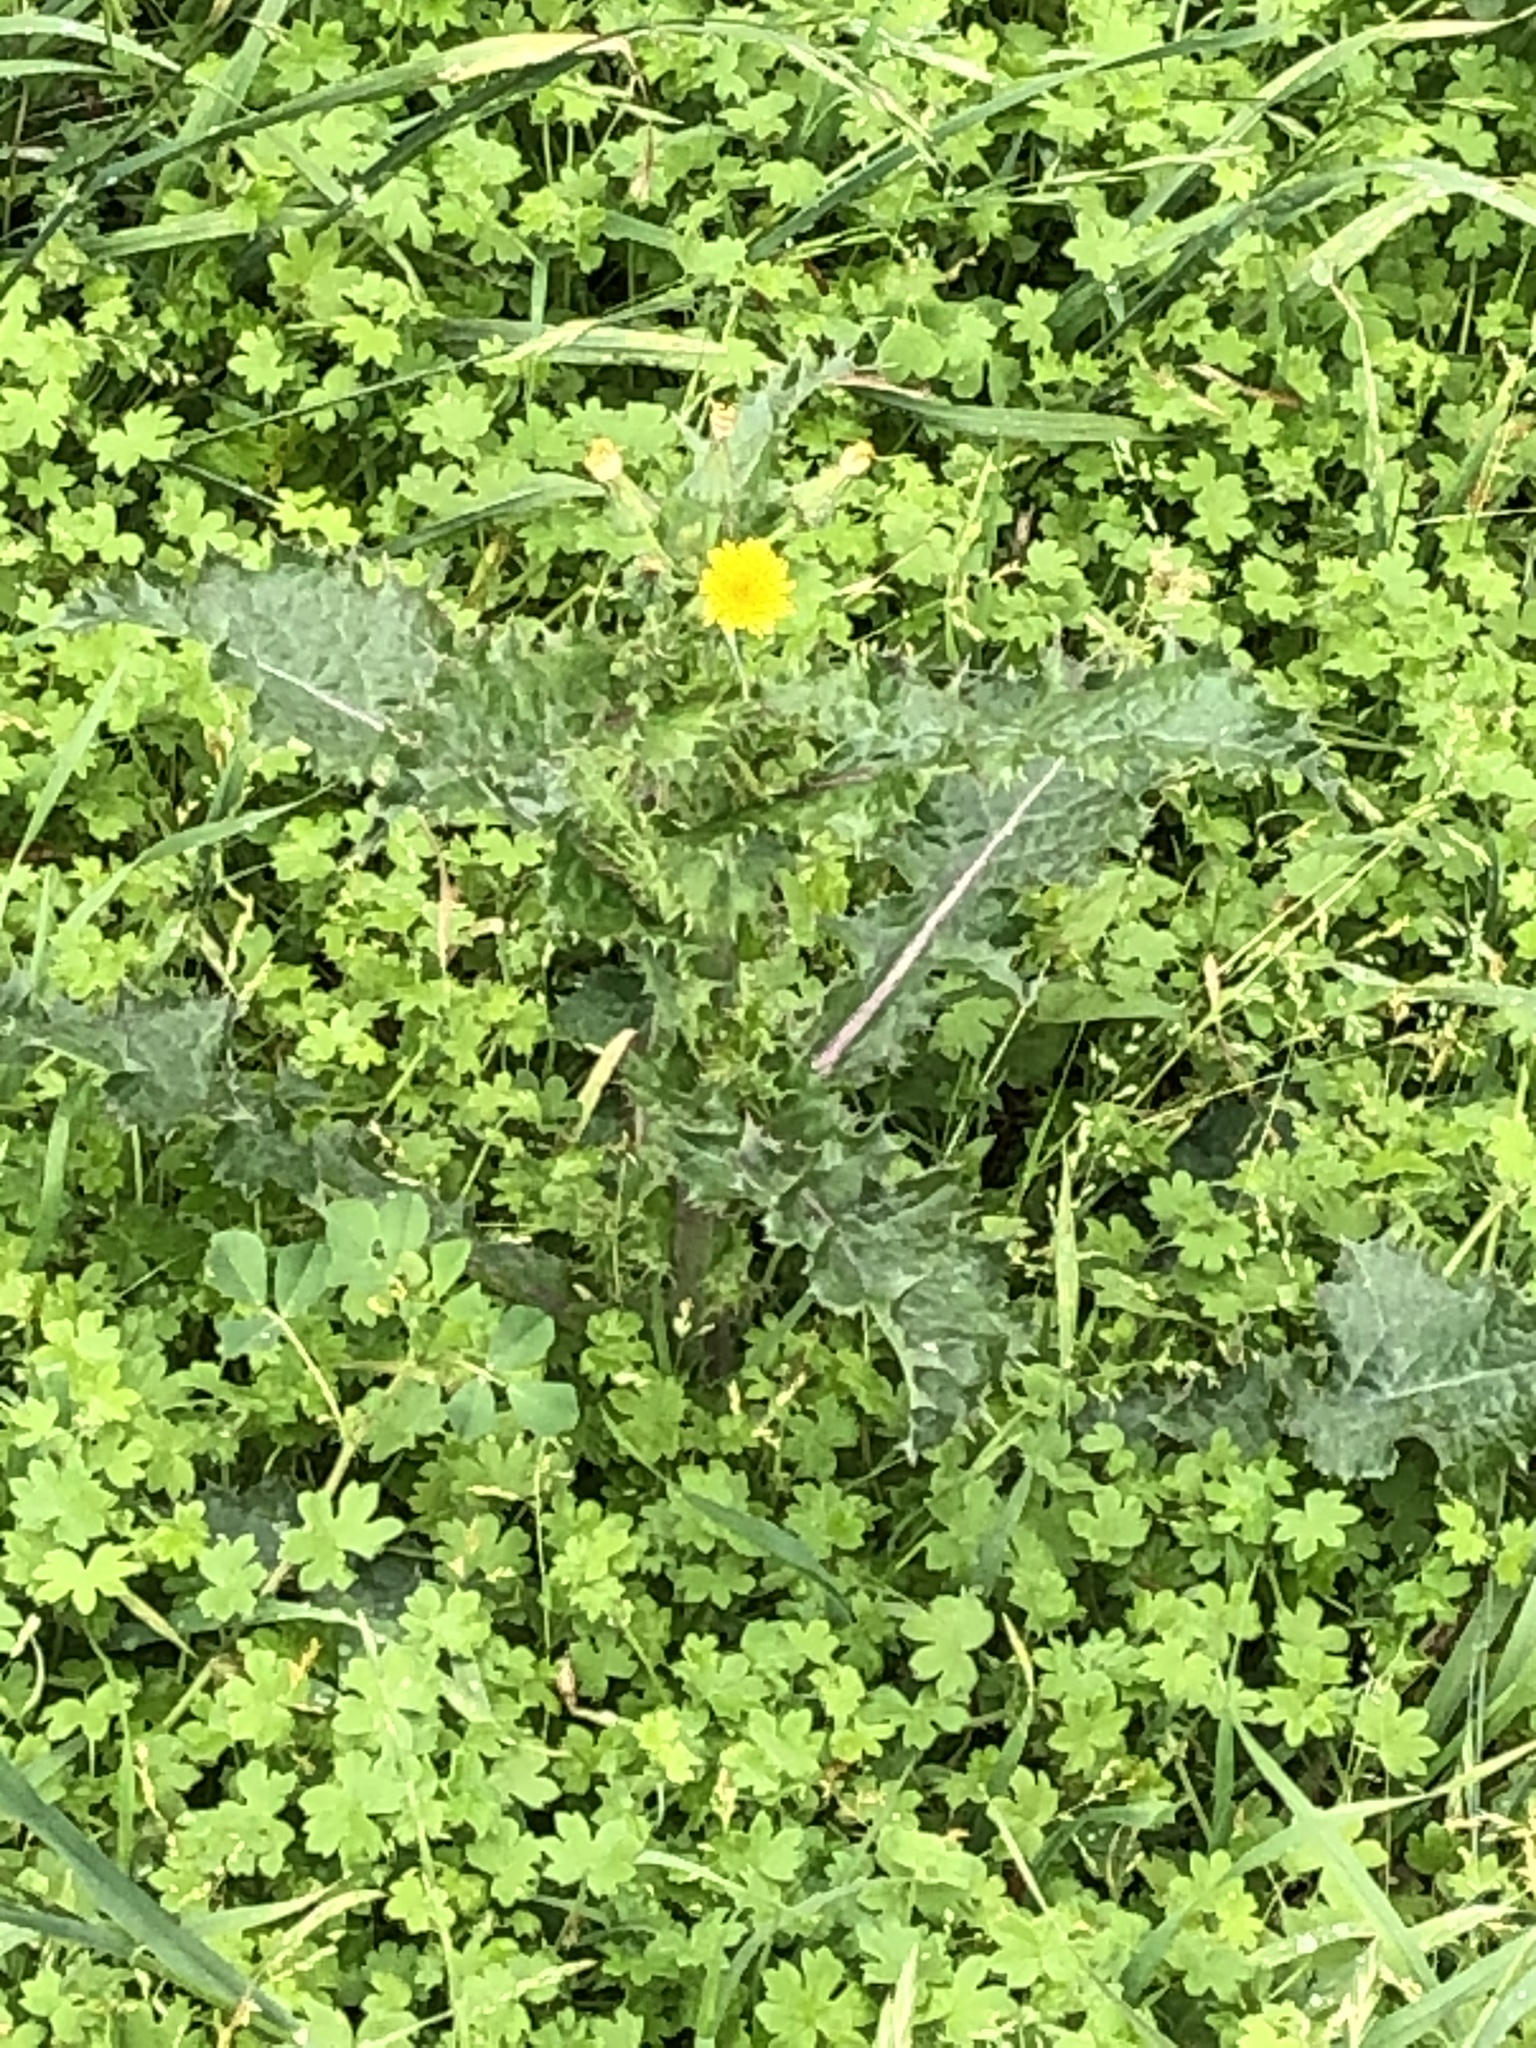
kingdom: Plantae
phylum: Tracheophyta
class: Magnoliopsida
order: Asterales
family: Asteraceae
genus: Sonchus
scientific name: Sonchus asper
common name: Prickly sow-thistle
